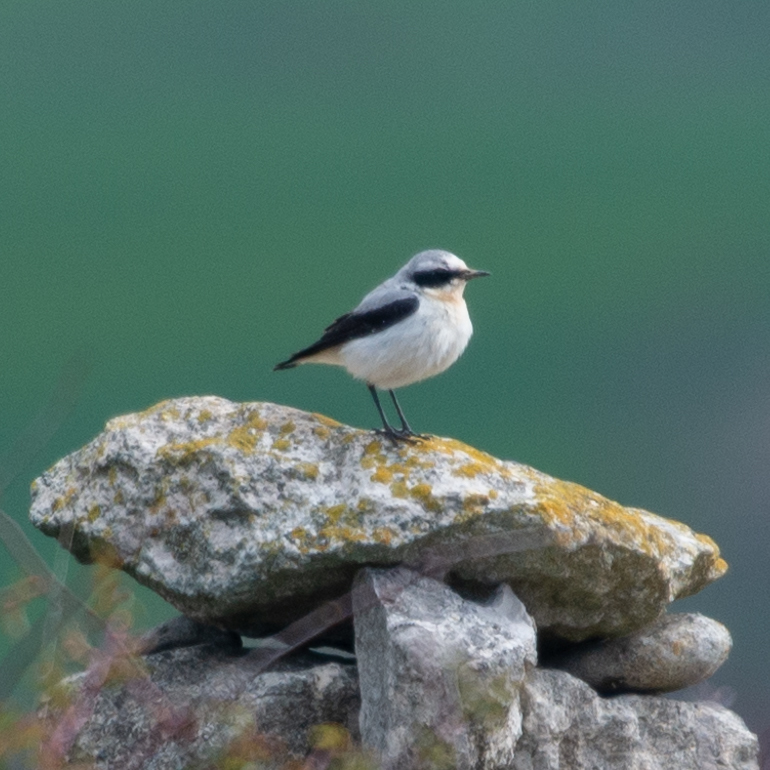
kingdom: Animalia
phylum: Chordata
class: Aves
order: Passeriformes
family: Muscicapidae
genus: Oenanthe
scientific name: Oenanthe oenanthe
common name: Northern wheatear
